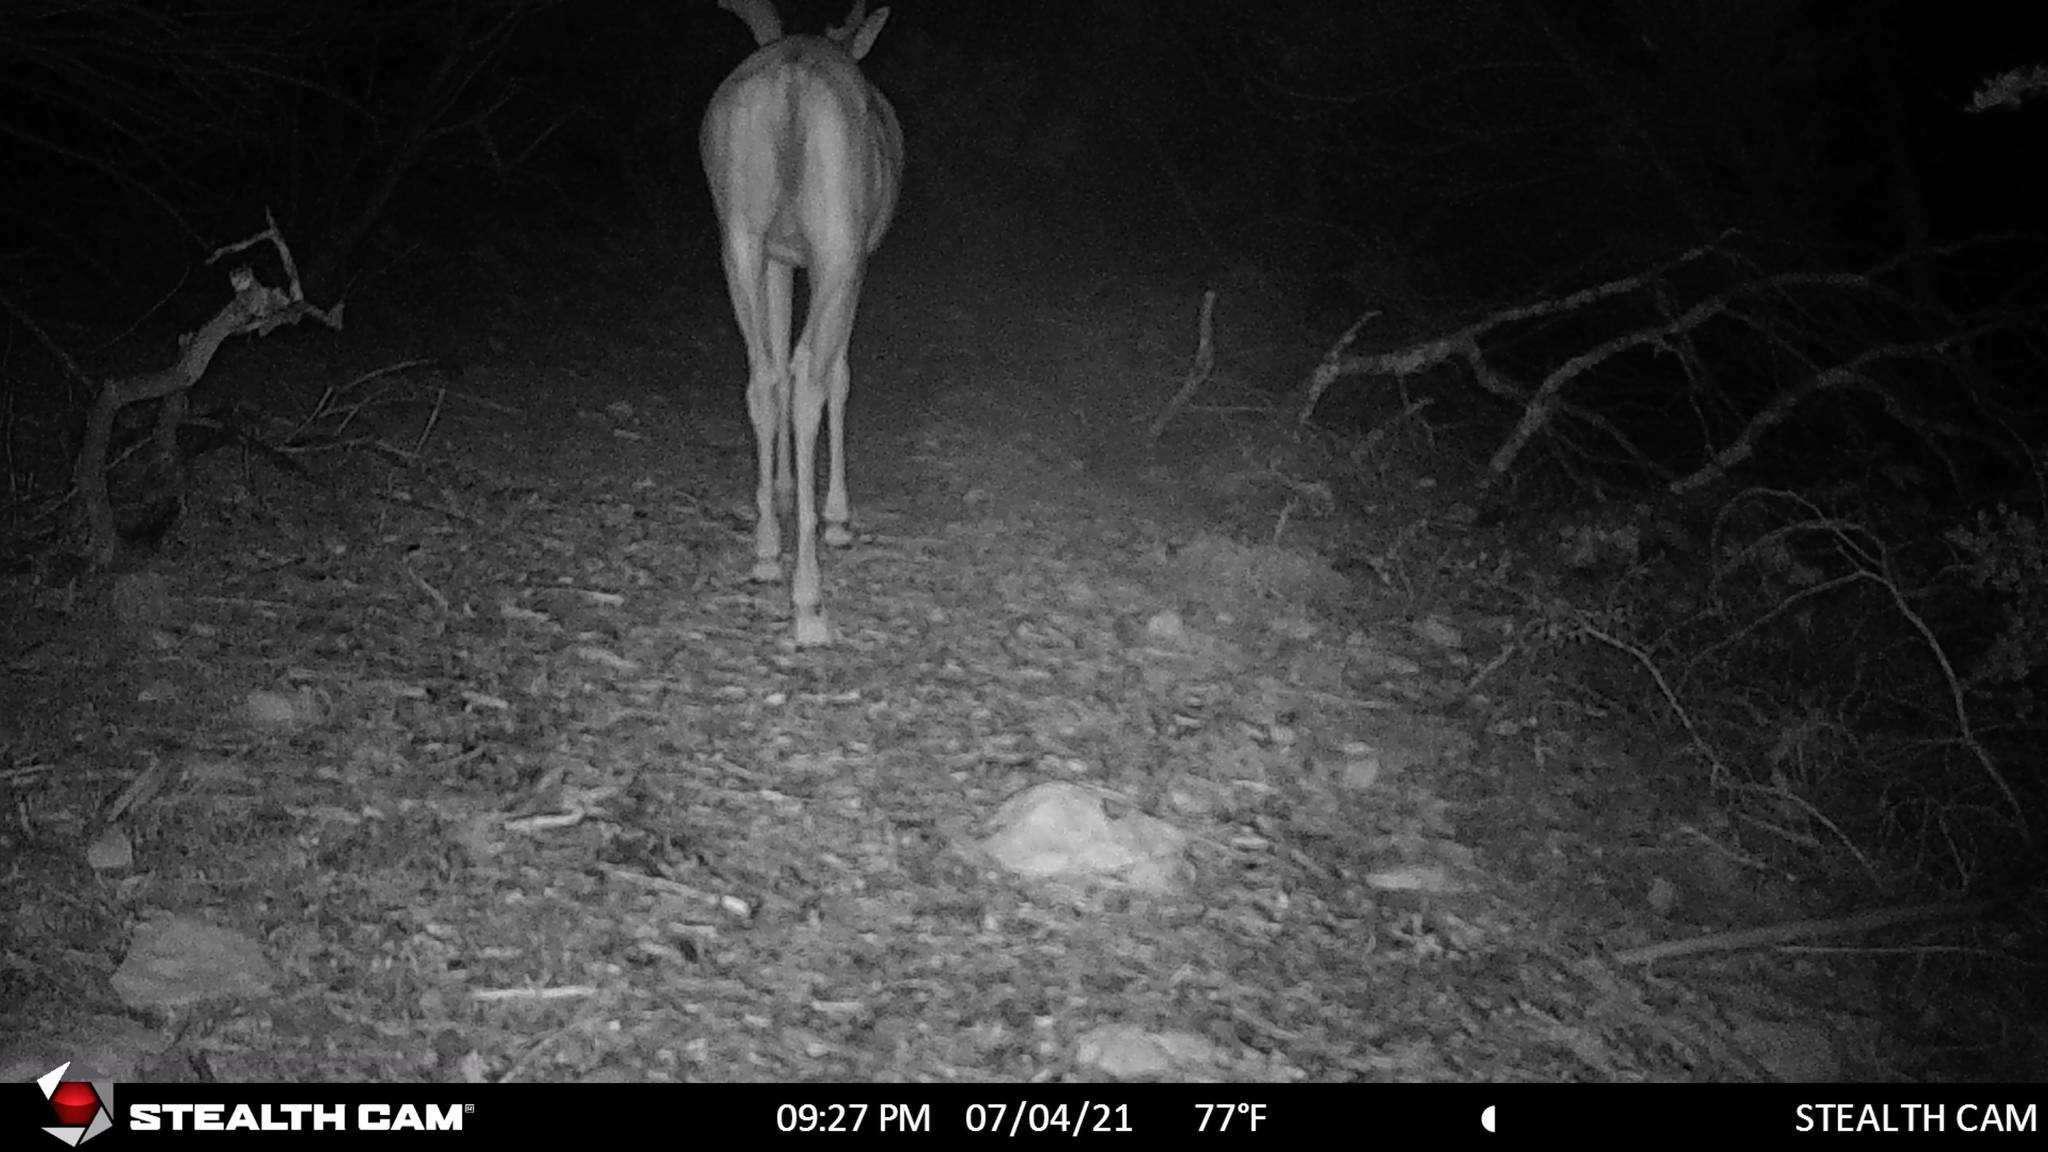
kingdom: Animalia
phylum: Chordata
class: Mammalia
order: Artiodactyla
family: Cervidae
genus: Odocoileus
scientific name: Odocoileus virginianus
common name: White-tailed deer
